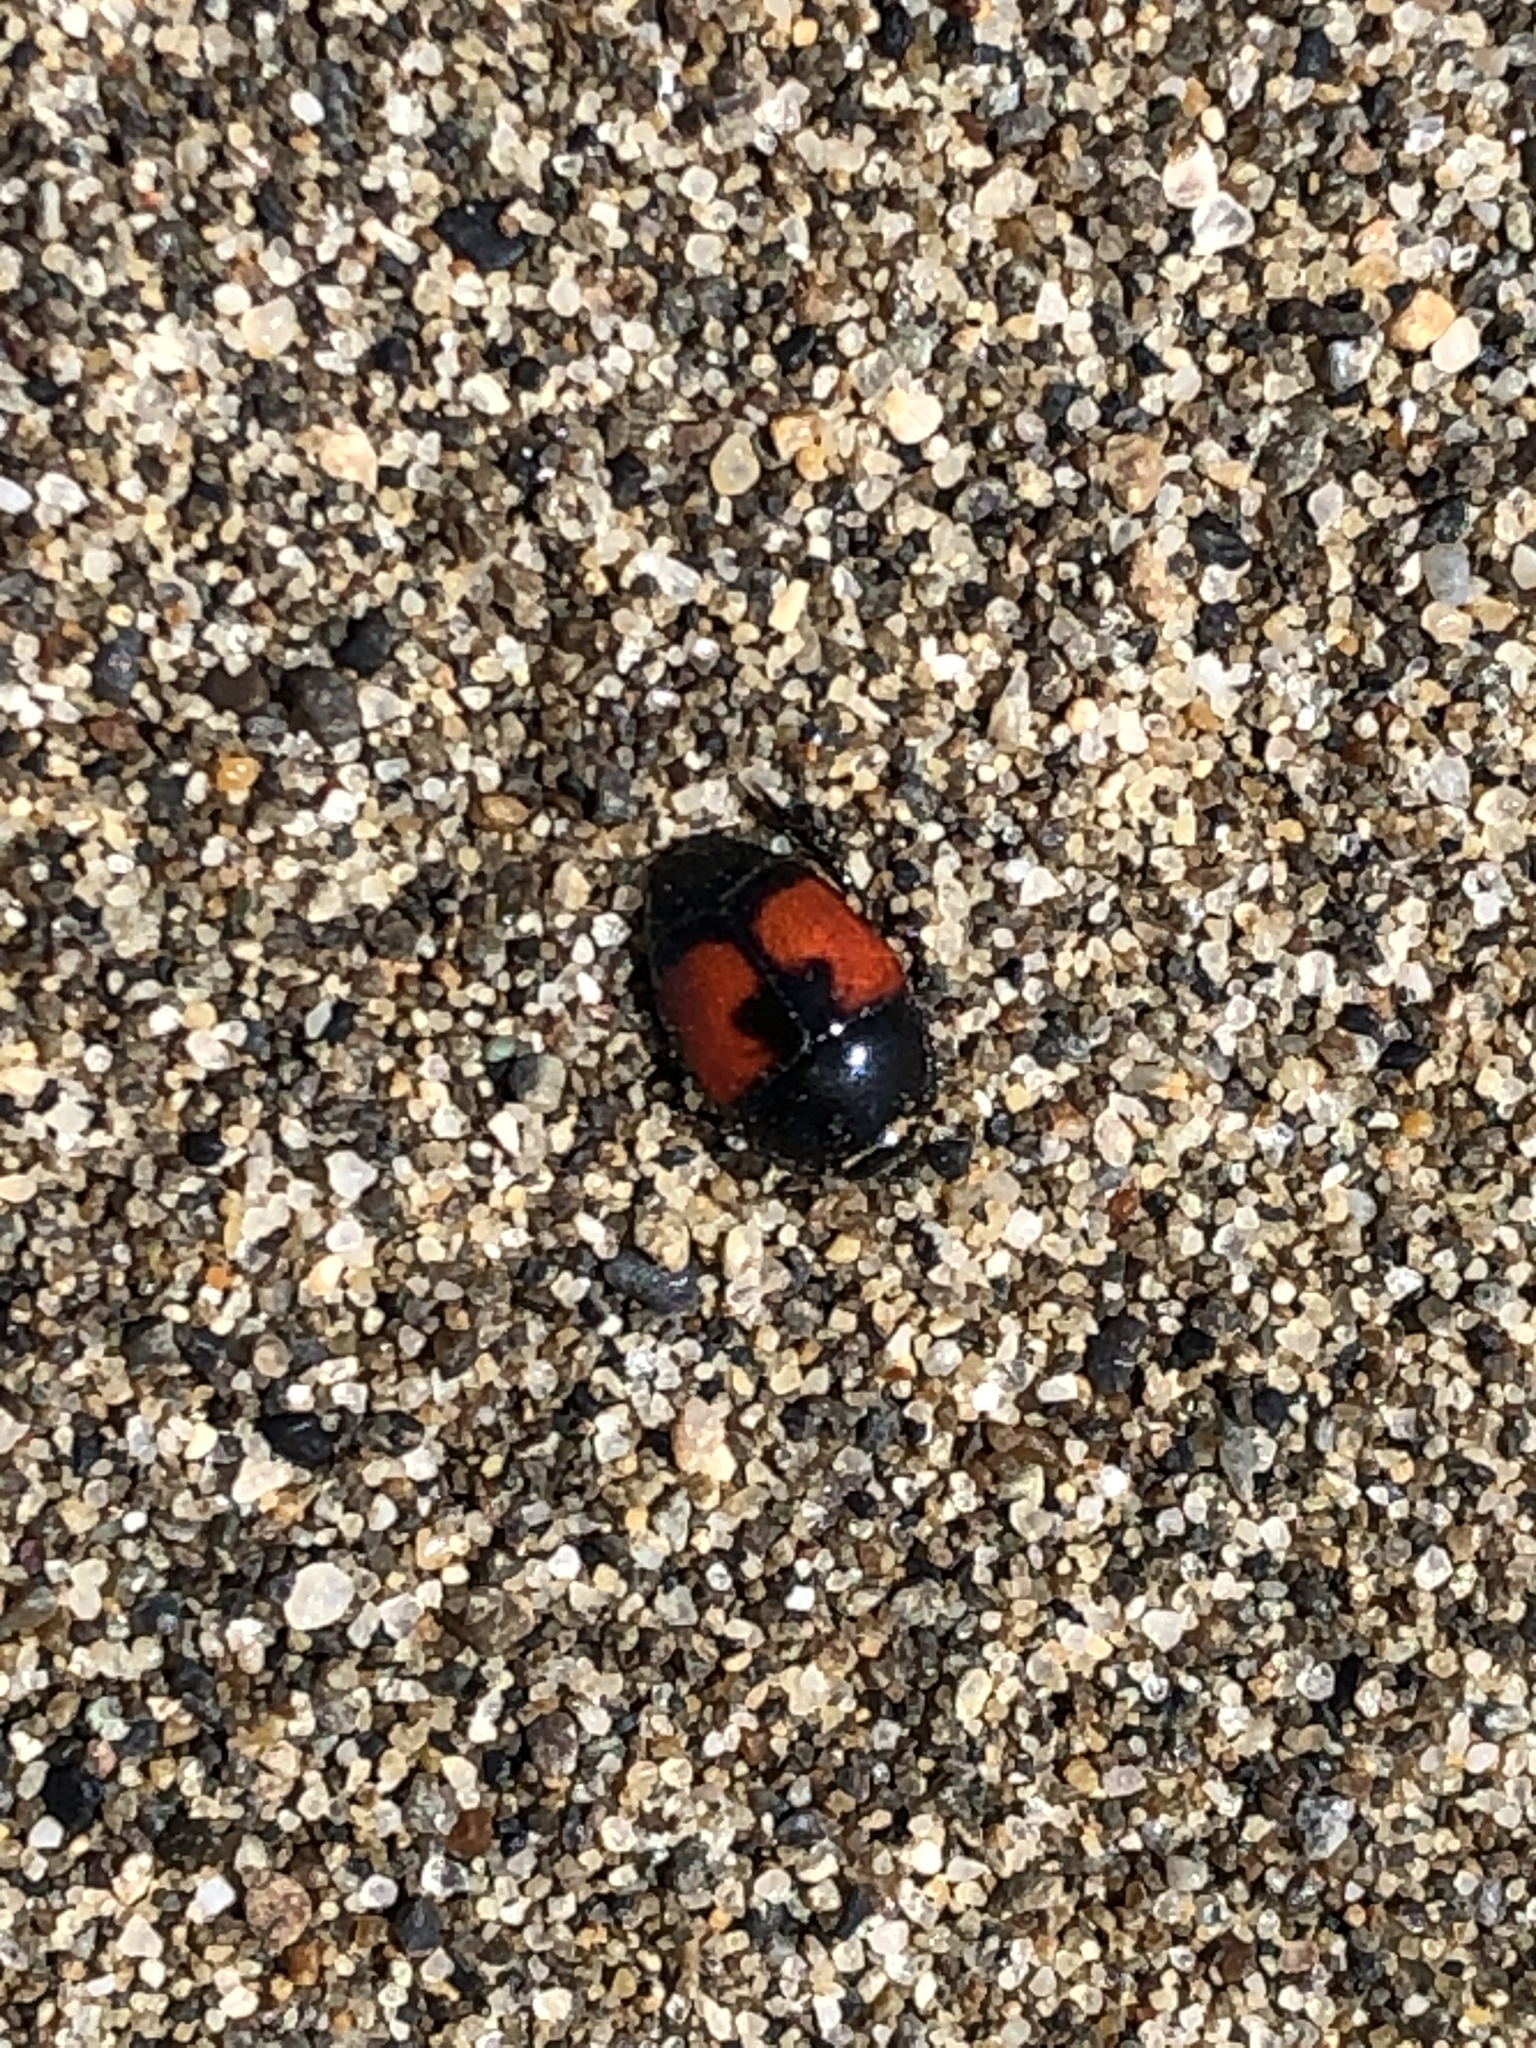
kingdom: Animalia
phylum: Arthropoda
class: Insecta
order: Coleoptera
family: Histeridae
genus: Spilodiscus
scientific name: Spilodiscus sellatus
